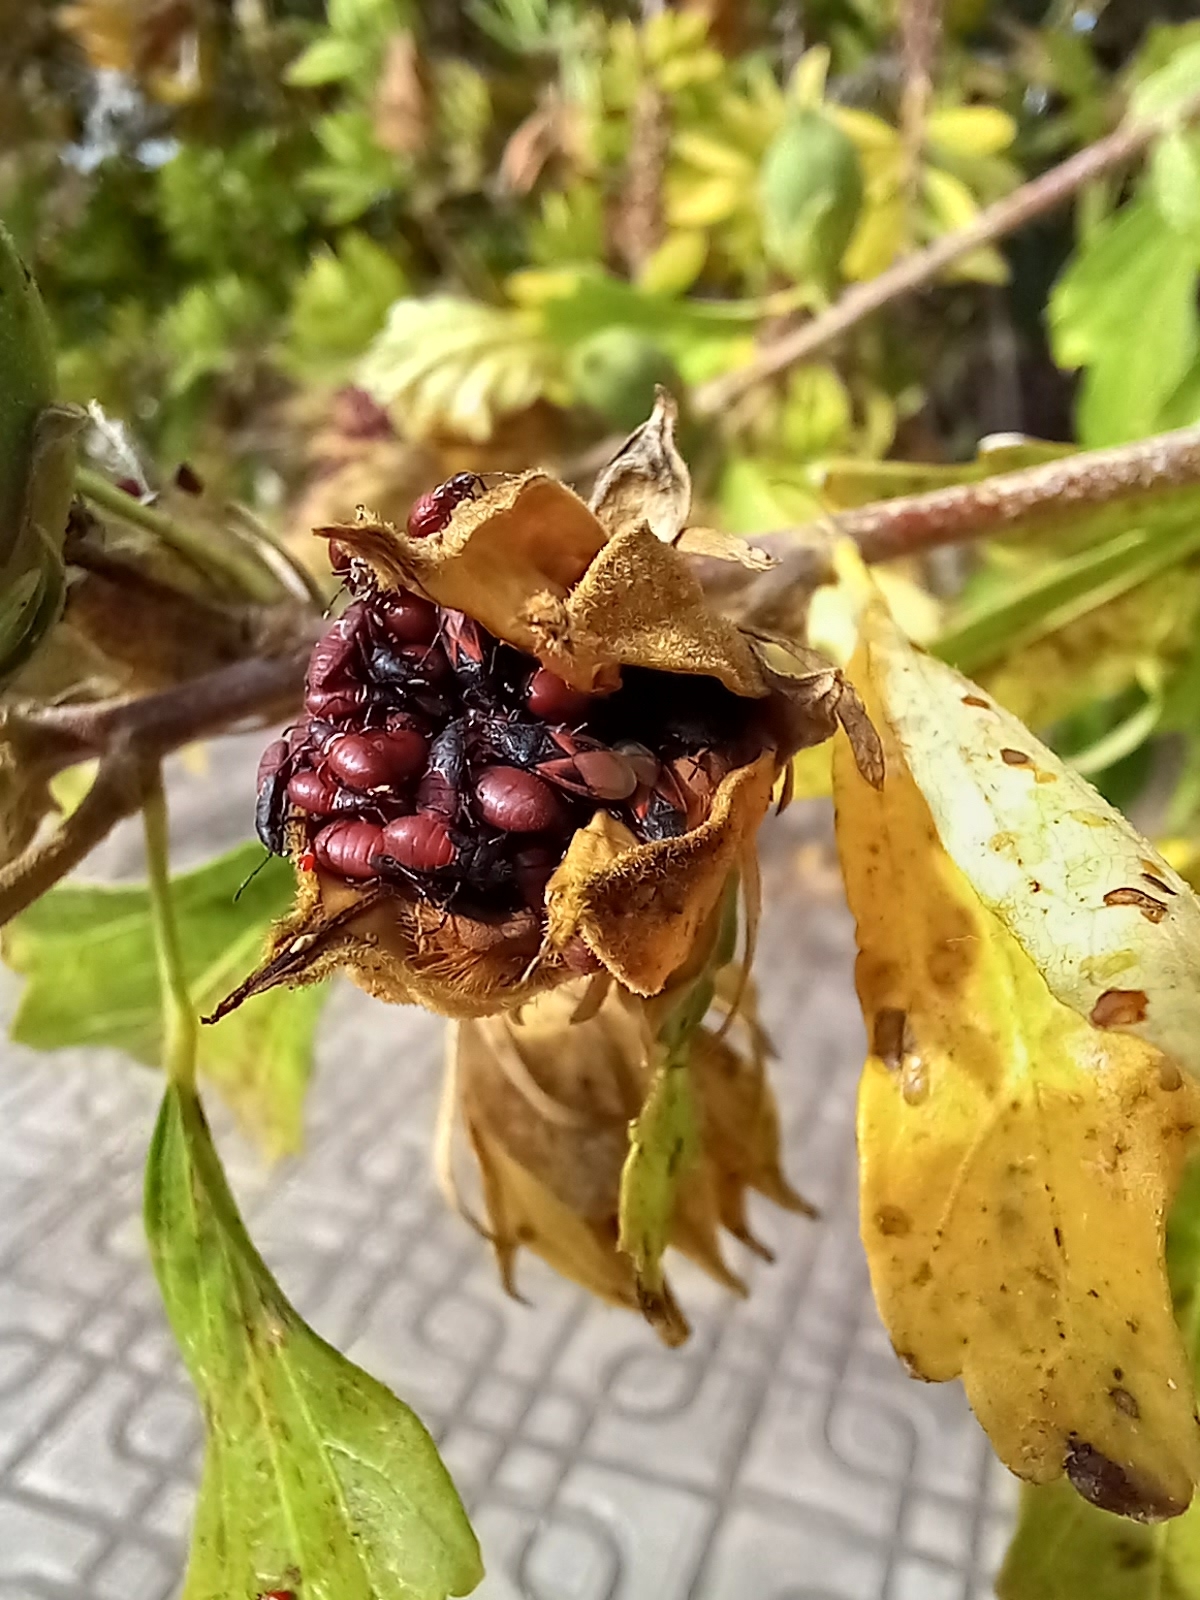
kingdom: Animalia
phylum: Arthropoda
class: Insecta
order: Hemiptera
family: Oxycarenidae
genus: Oxycarenus
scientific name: Oxycarenus lavaterae
